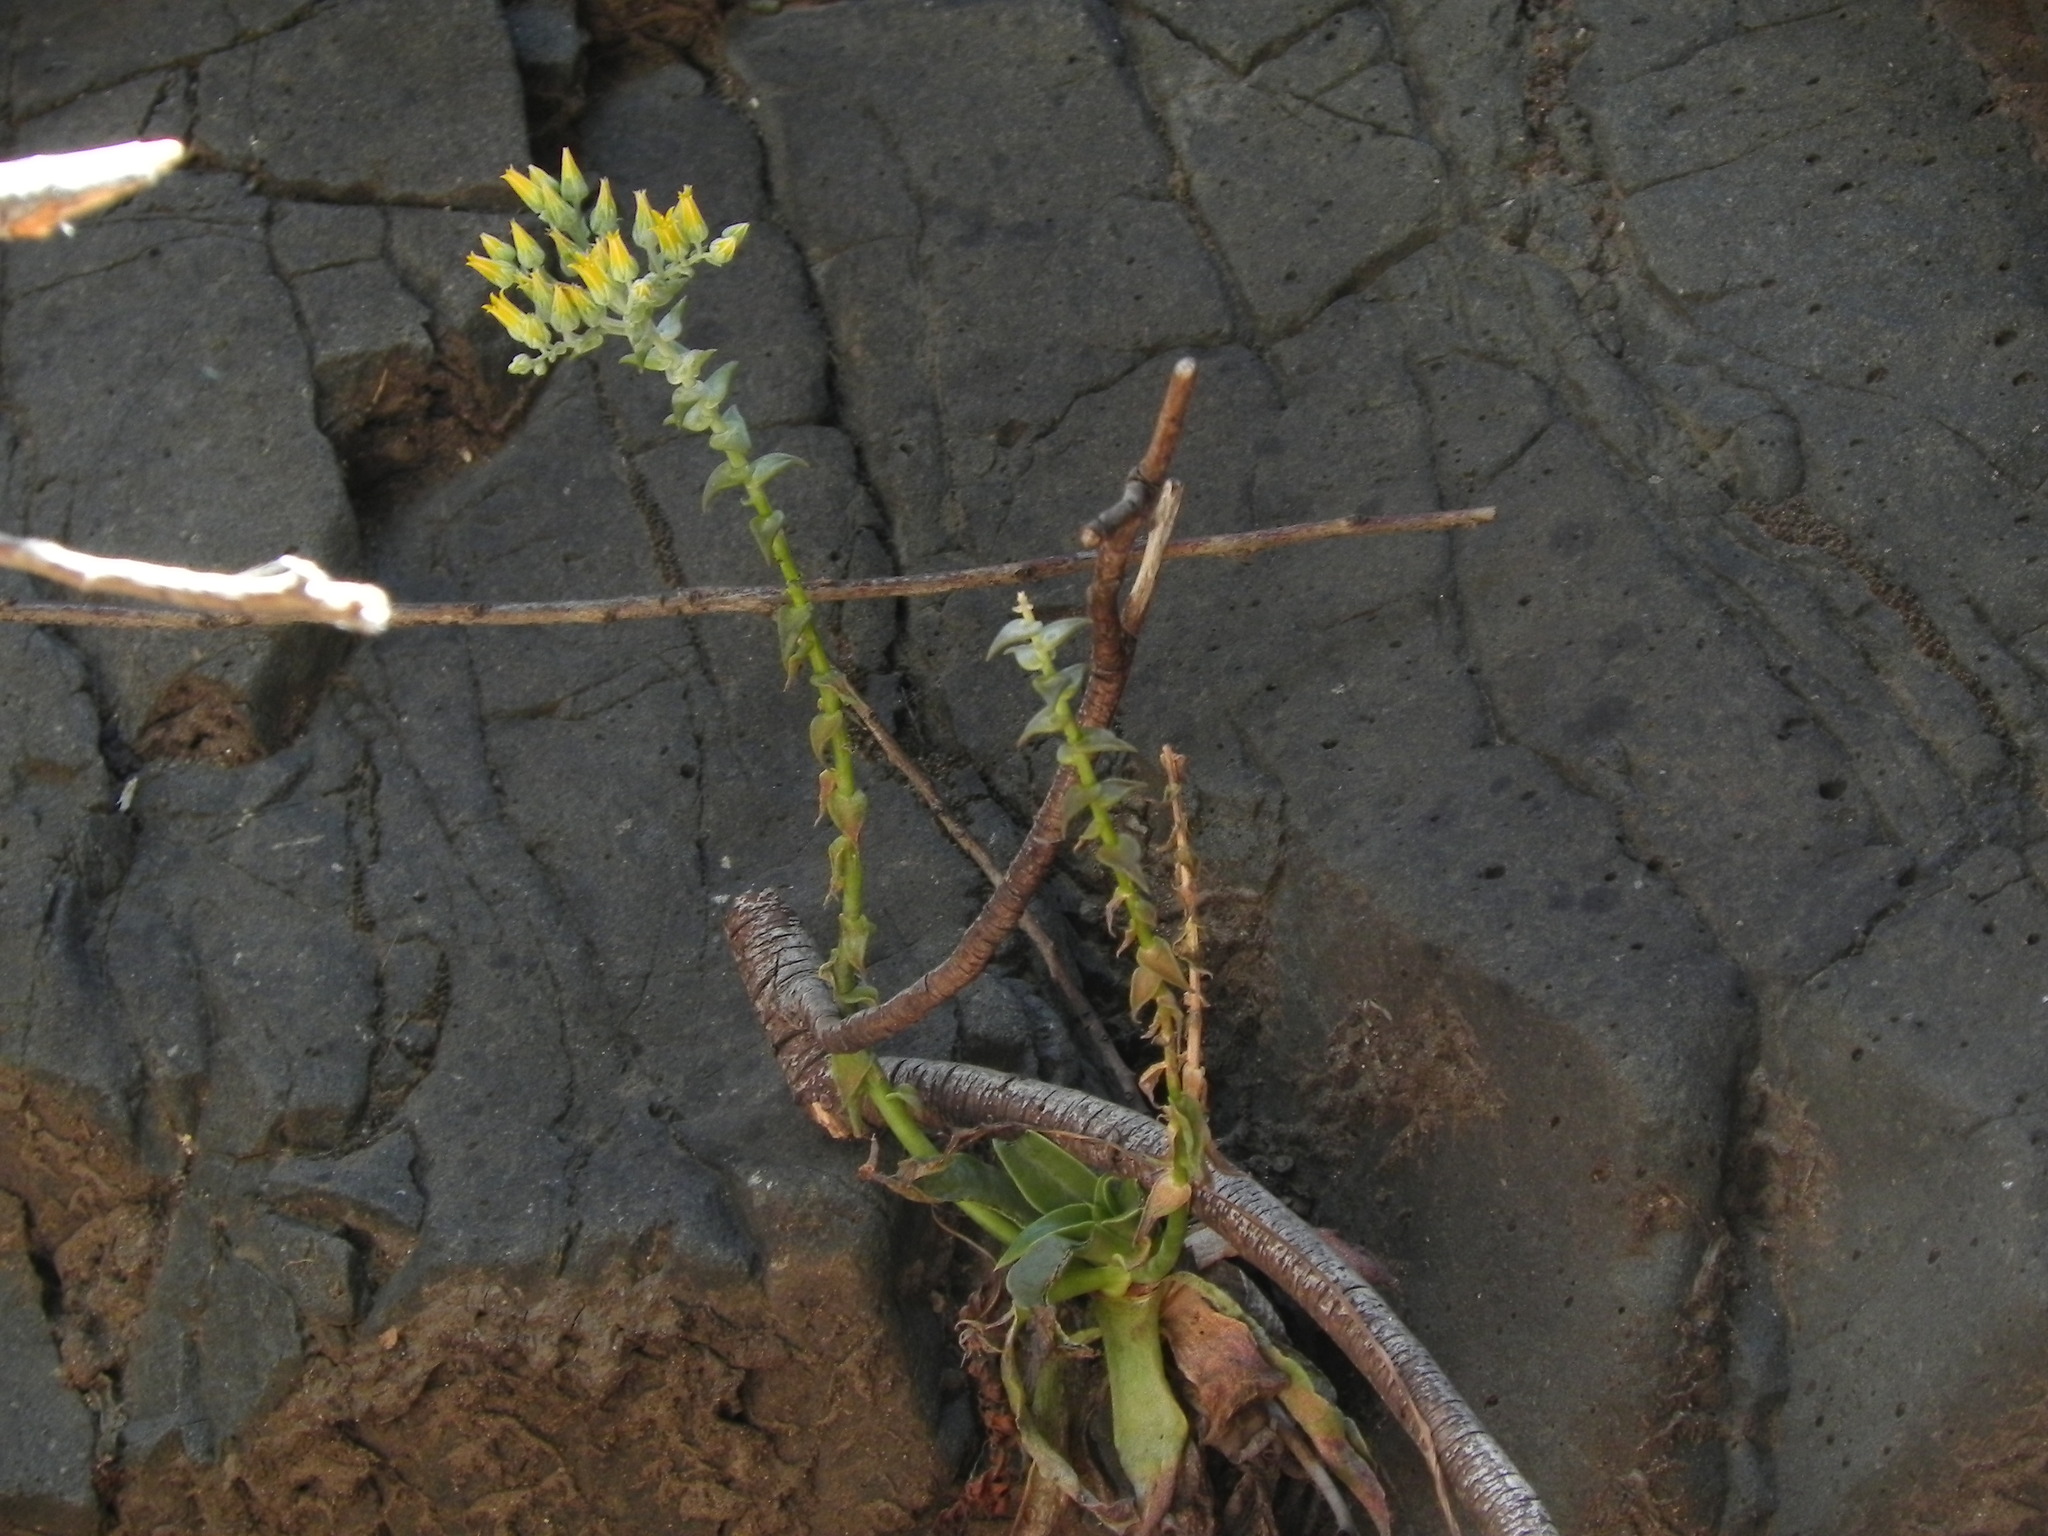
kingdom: Plantae
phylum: Tracheophyta
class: Magnoliopsida
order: Saxifragales
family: Crassulaceae
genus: Dudleya
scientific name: Dudleya cymosa
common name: Canyon dudleya
